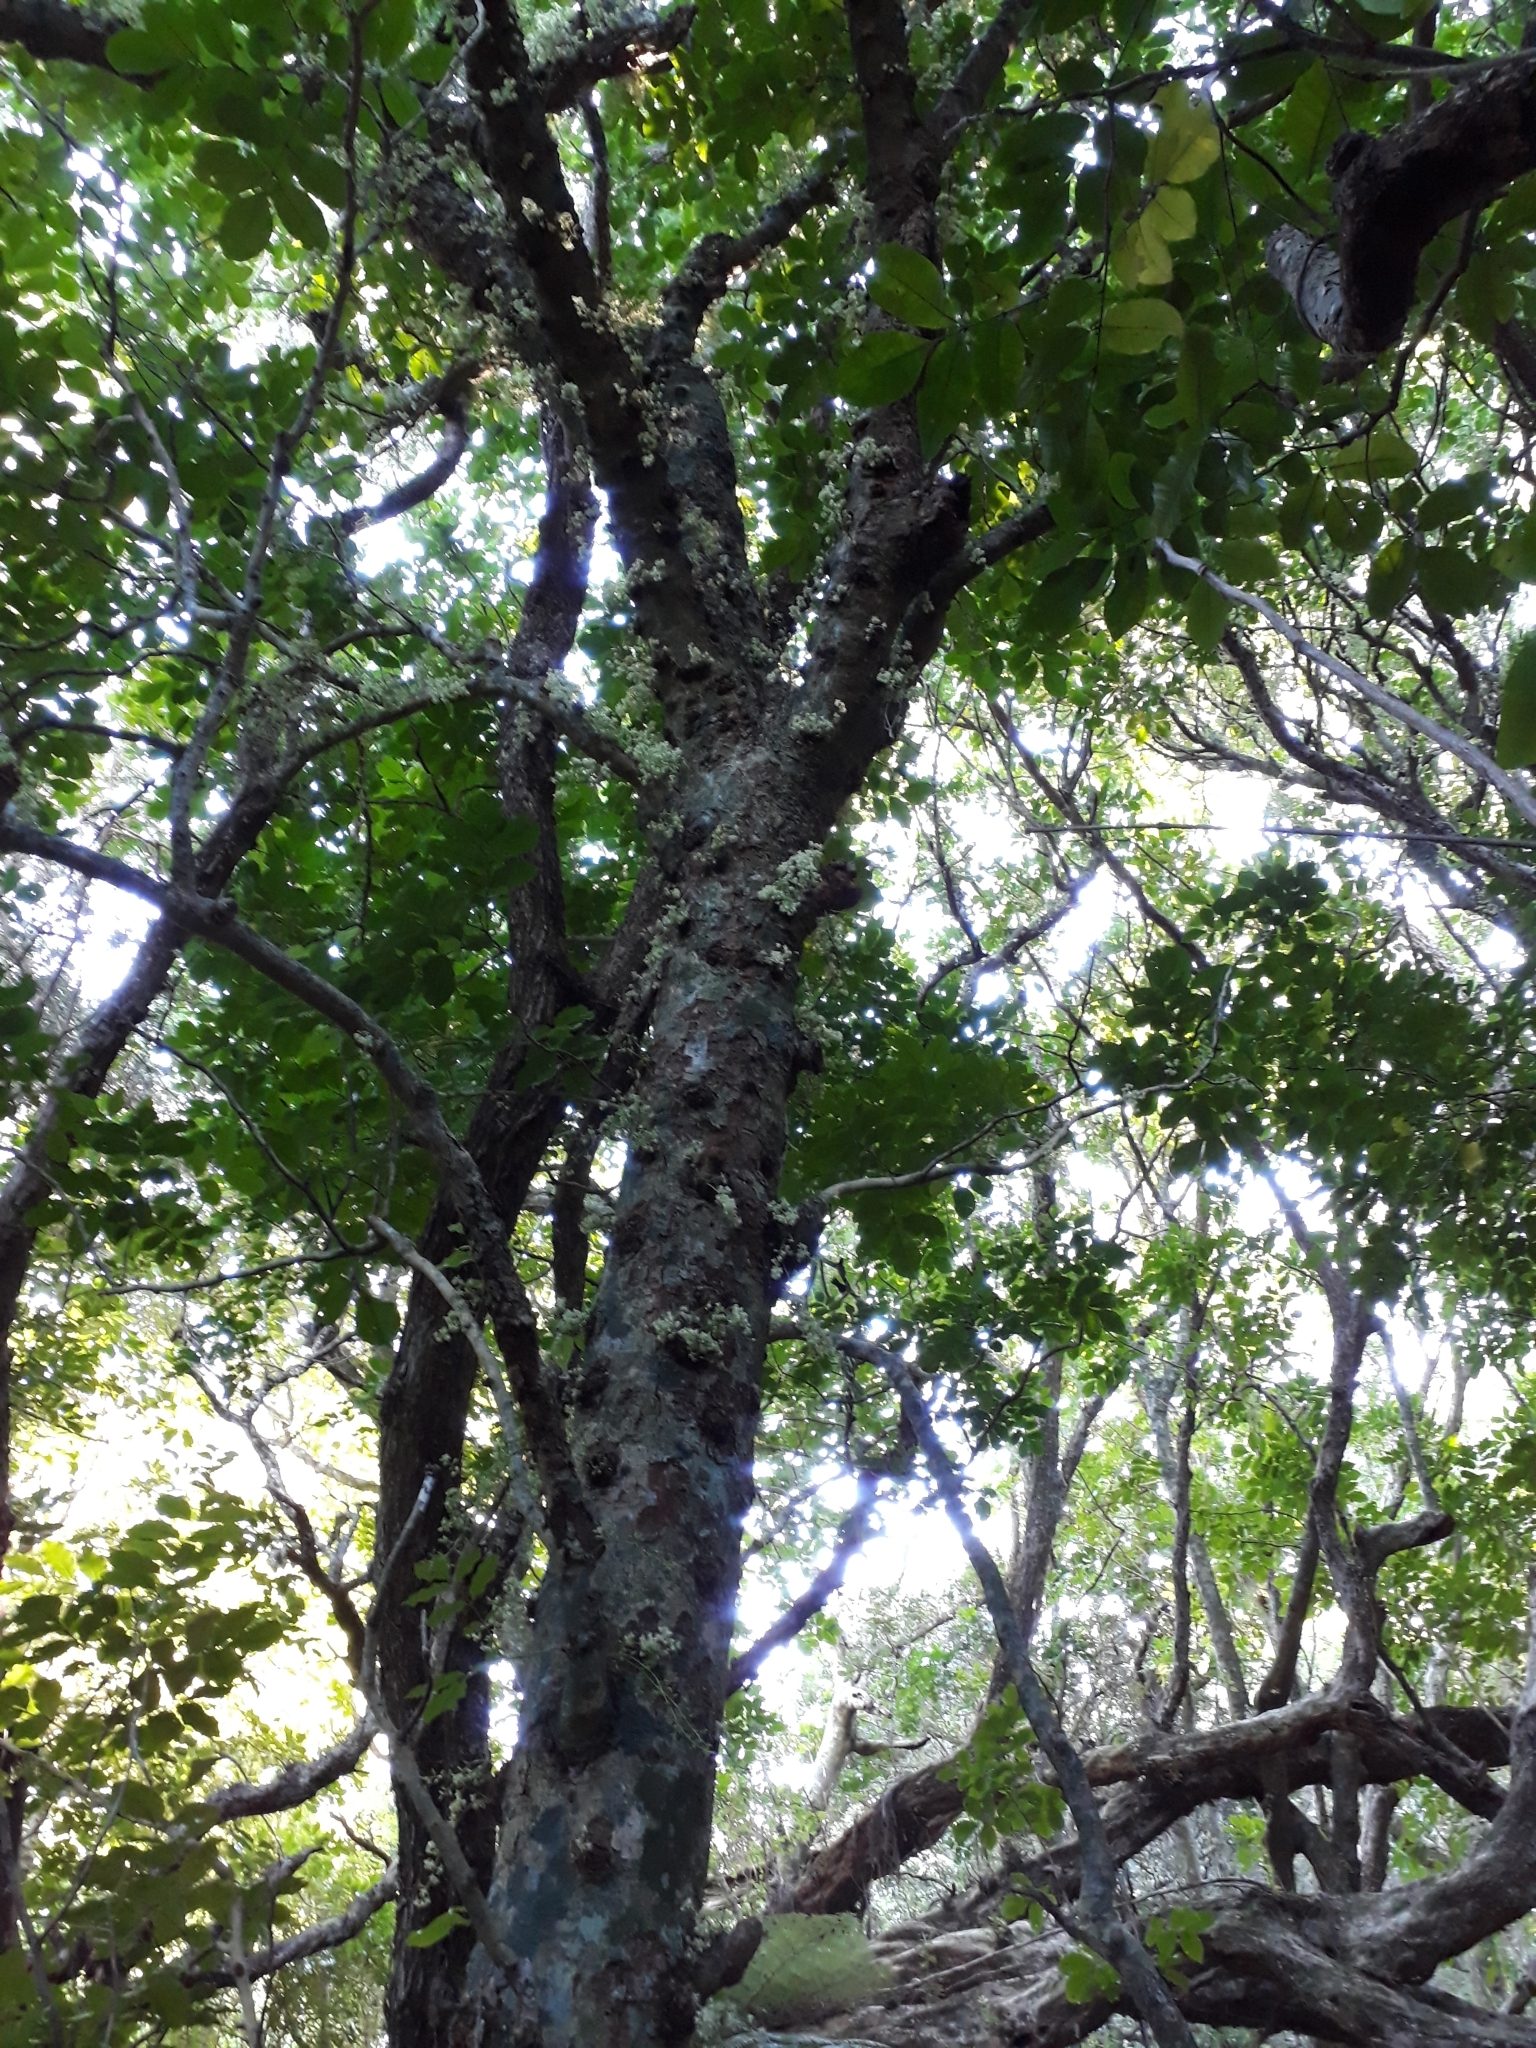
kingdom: Plantae
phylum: Tracheophyta
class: Magnoliopsida
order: Sapindales
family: Meliaceae
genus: Didymocheton
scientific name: Didymocheton spectabilis
